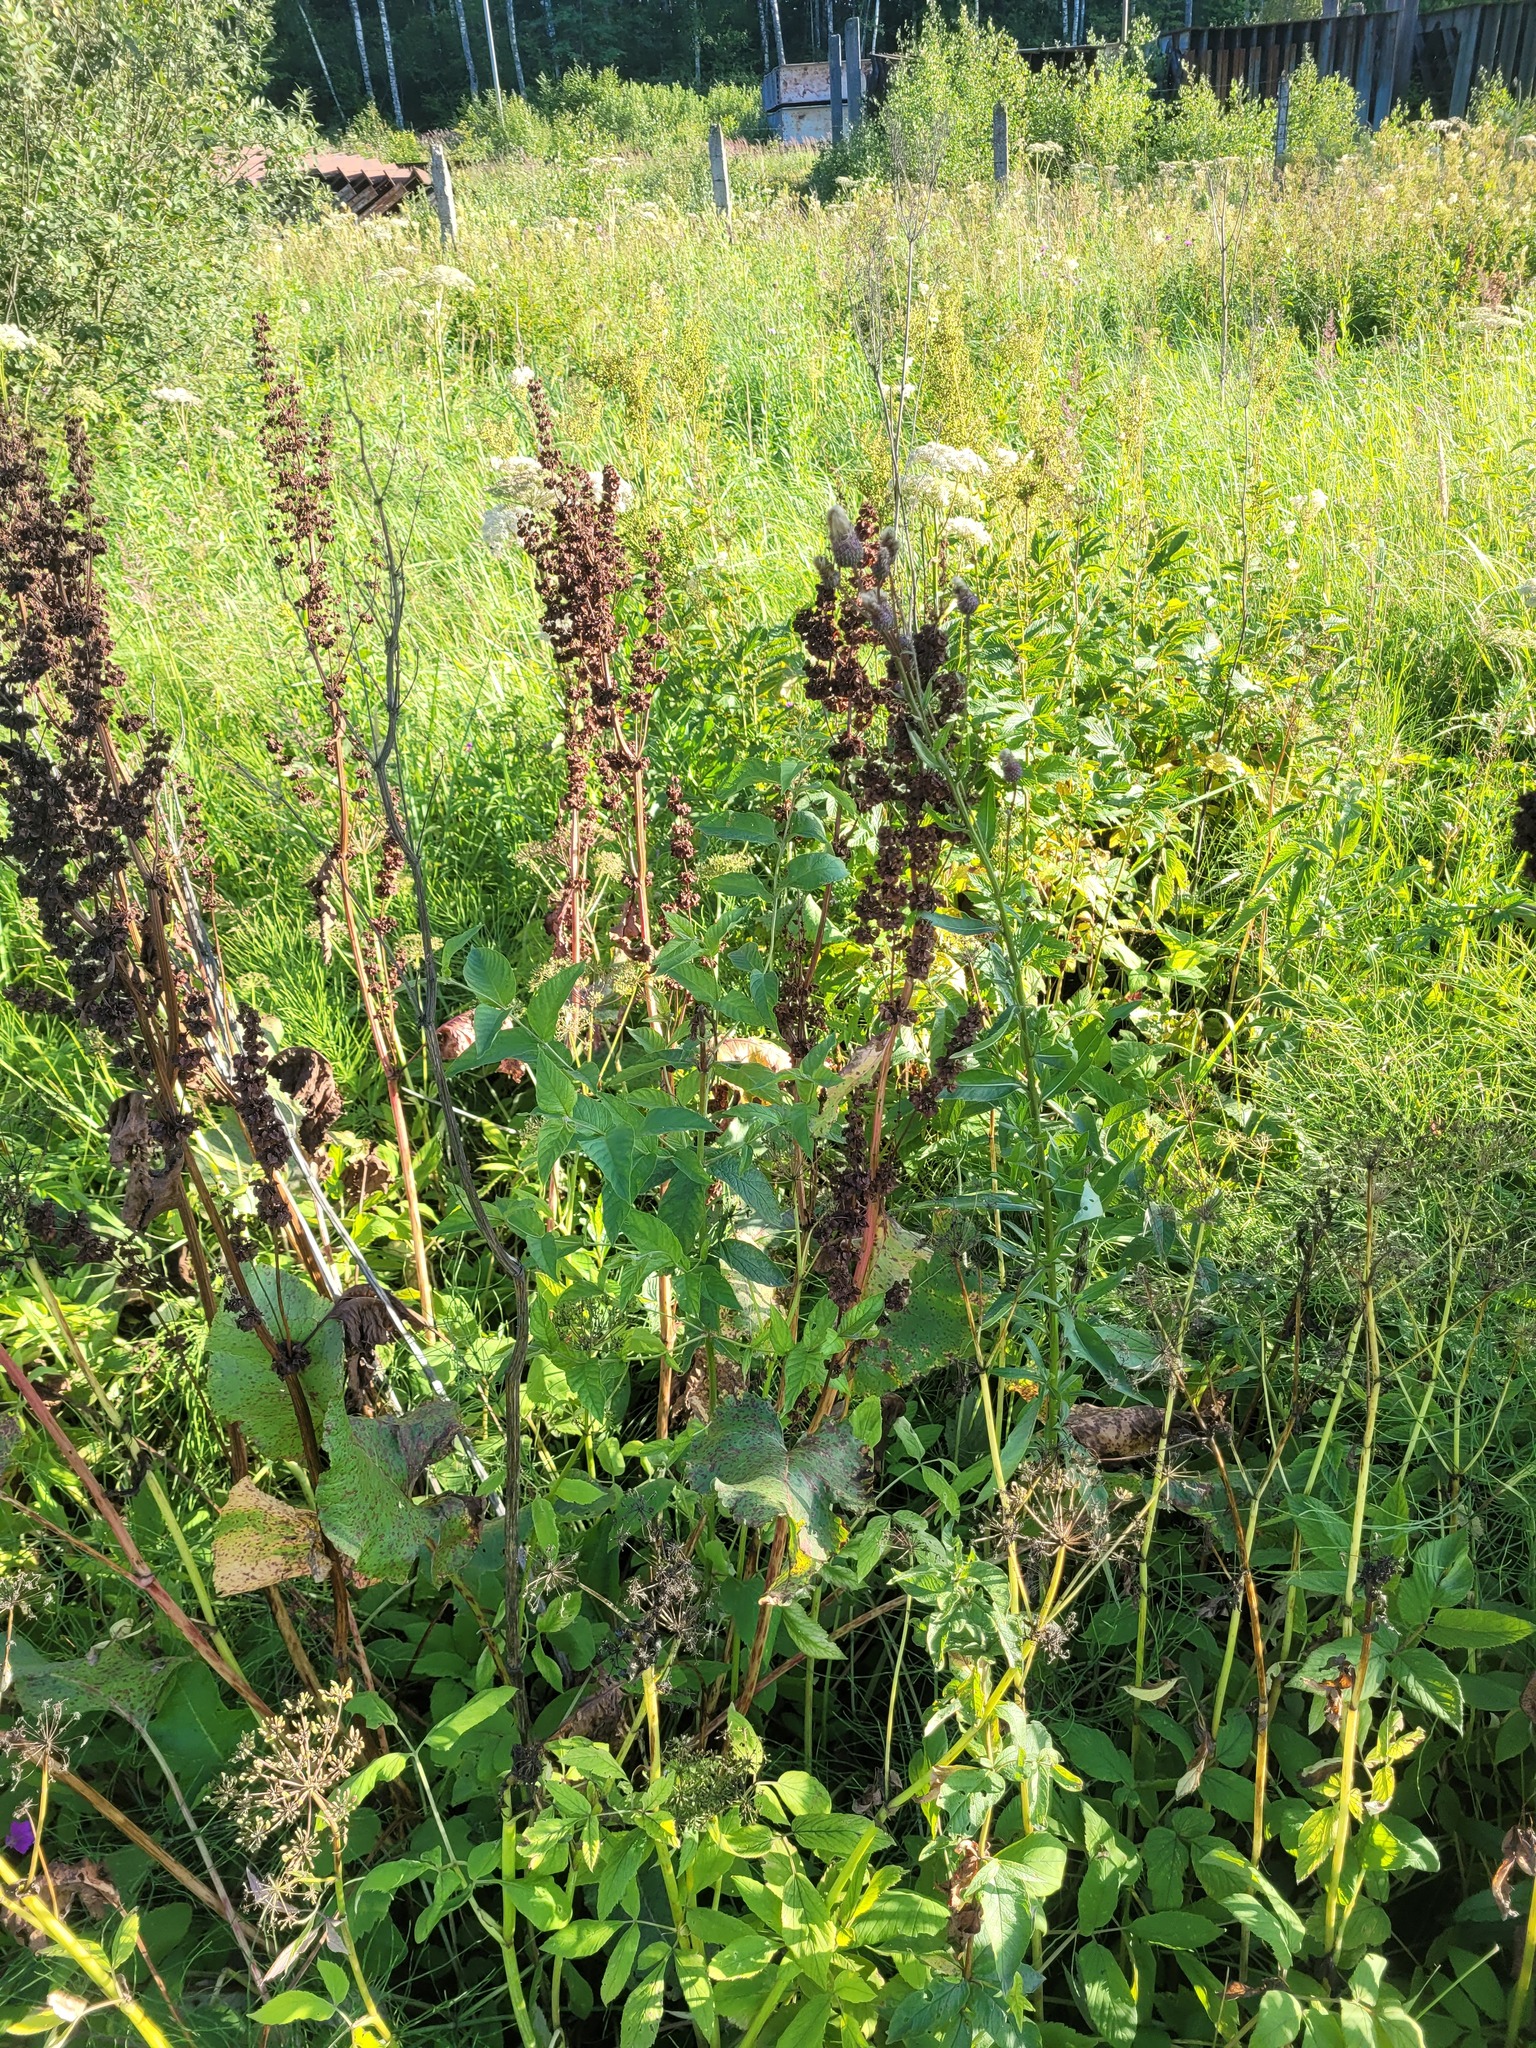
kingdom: Plantae
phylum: Tracheophyta
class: Magnoliopsida
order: Caryophyllales
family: Polygonaceae
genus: Rumex
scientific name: Rumex confertus
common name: Russian dock
